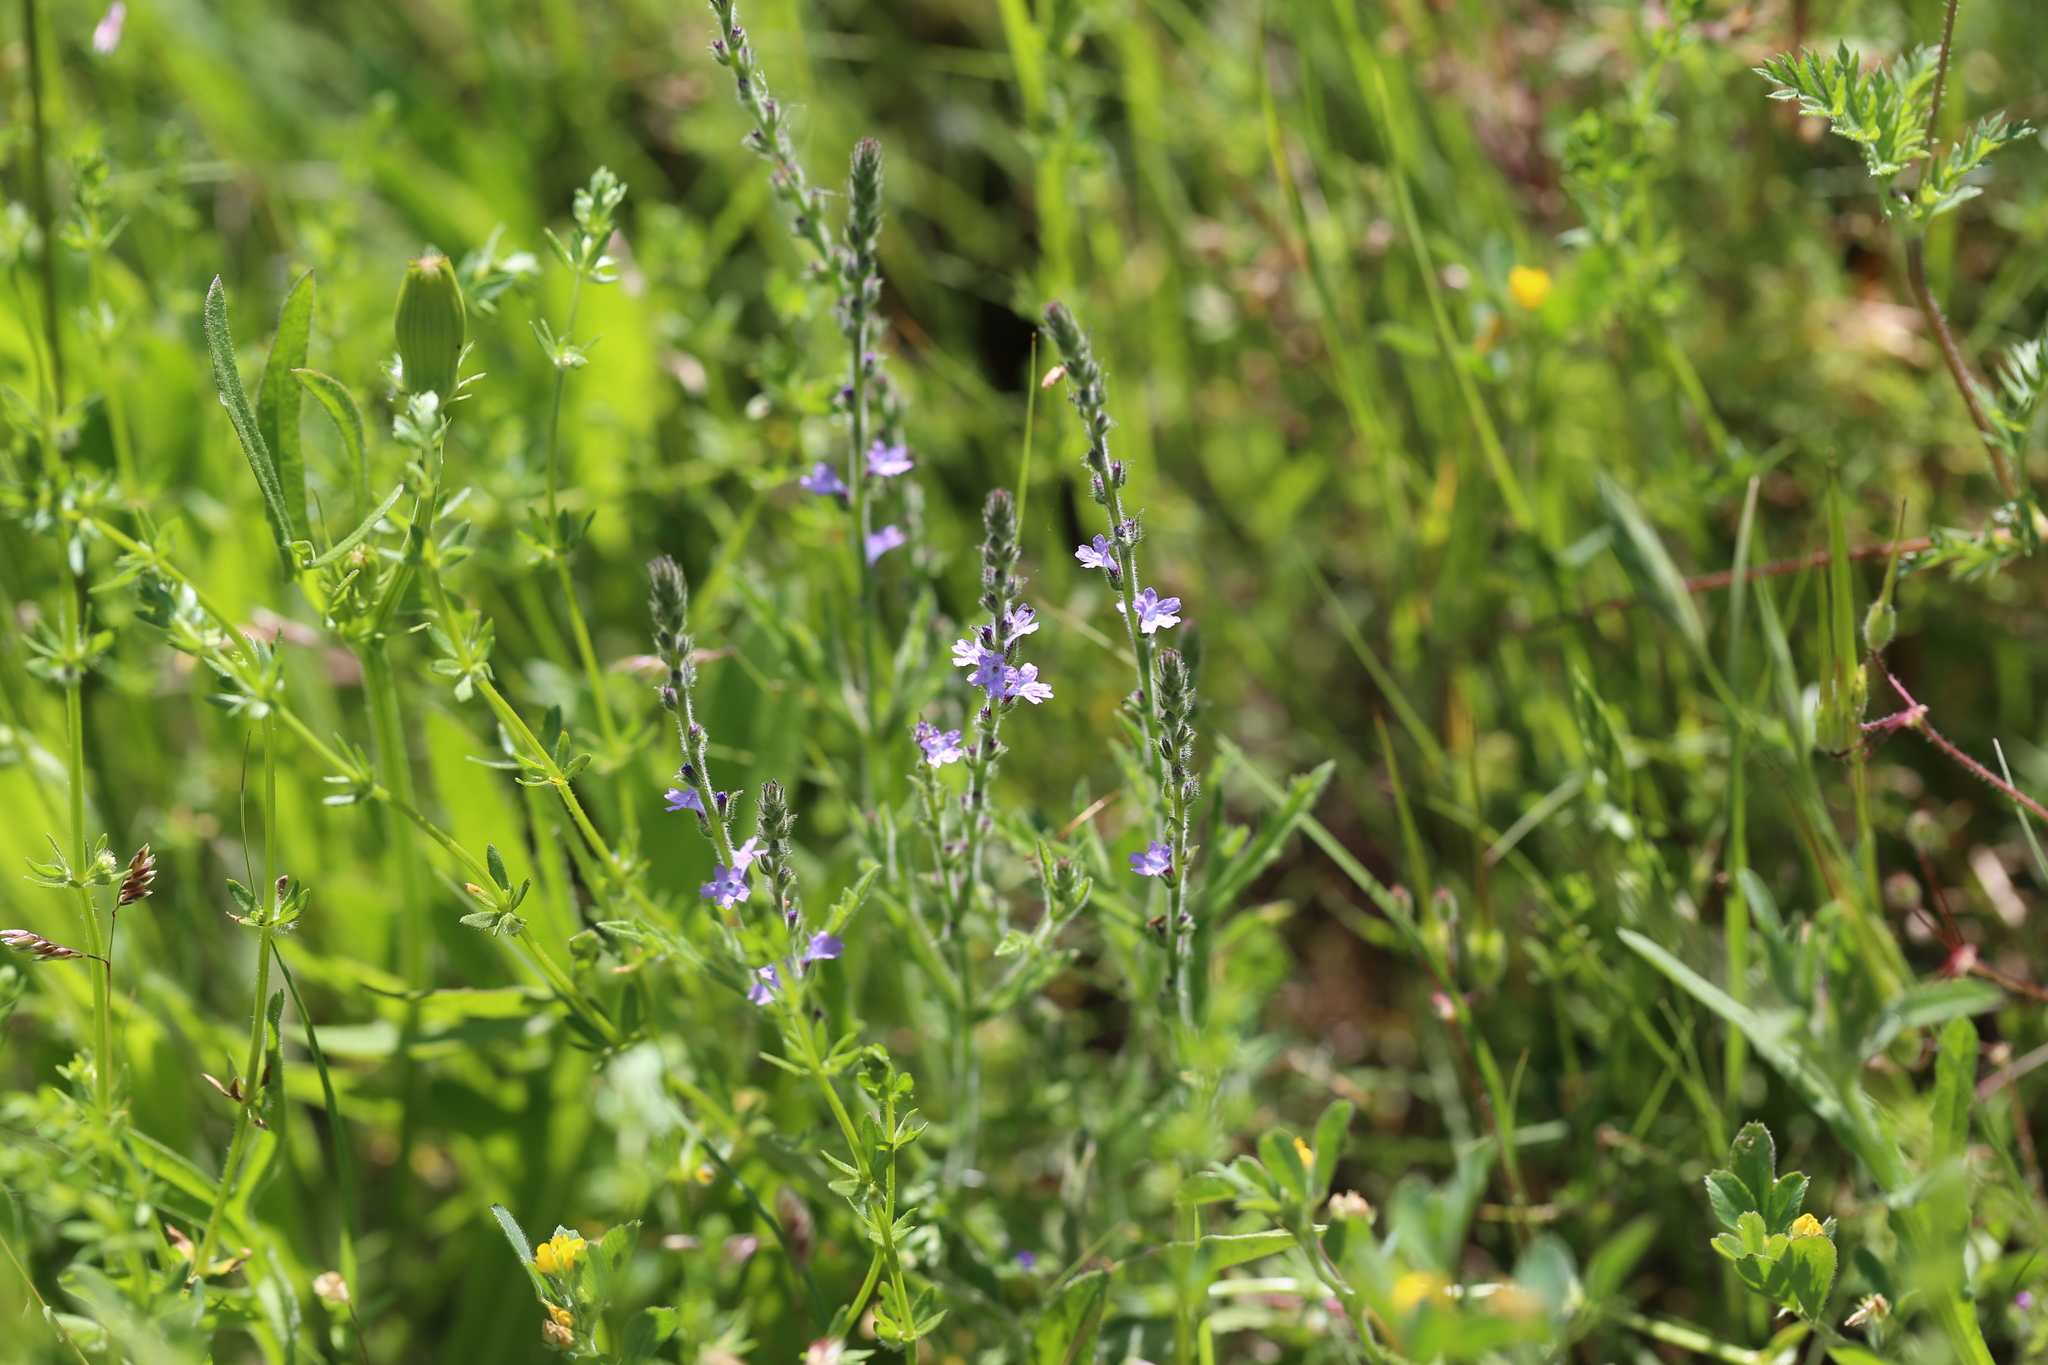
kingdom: Plantae
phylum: Tracheophyta
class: Magnoliopsida
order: Lamiales
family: Verbenaceae
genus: Verbena
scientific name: Verbena halei
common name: Texas vervain
